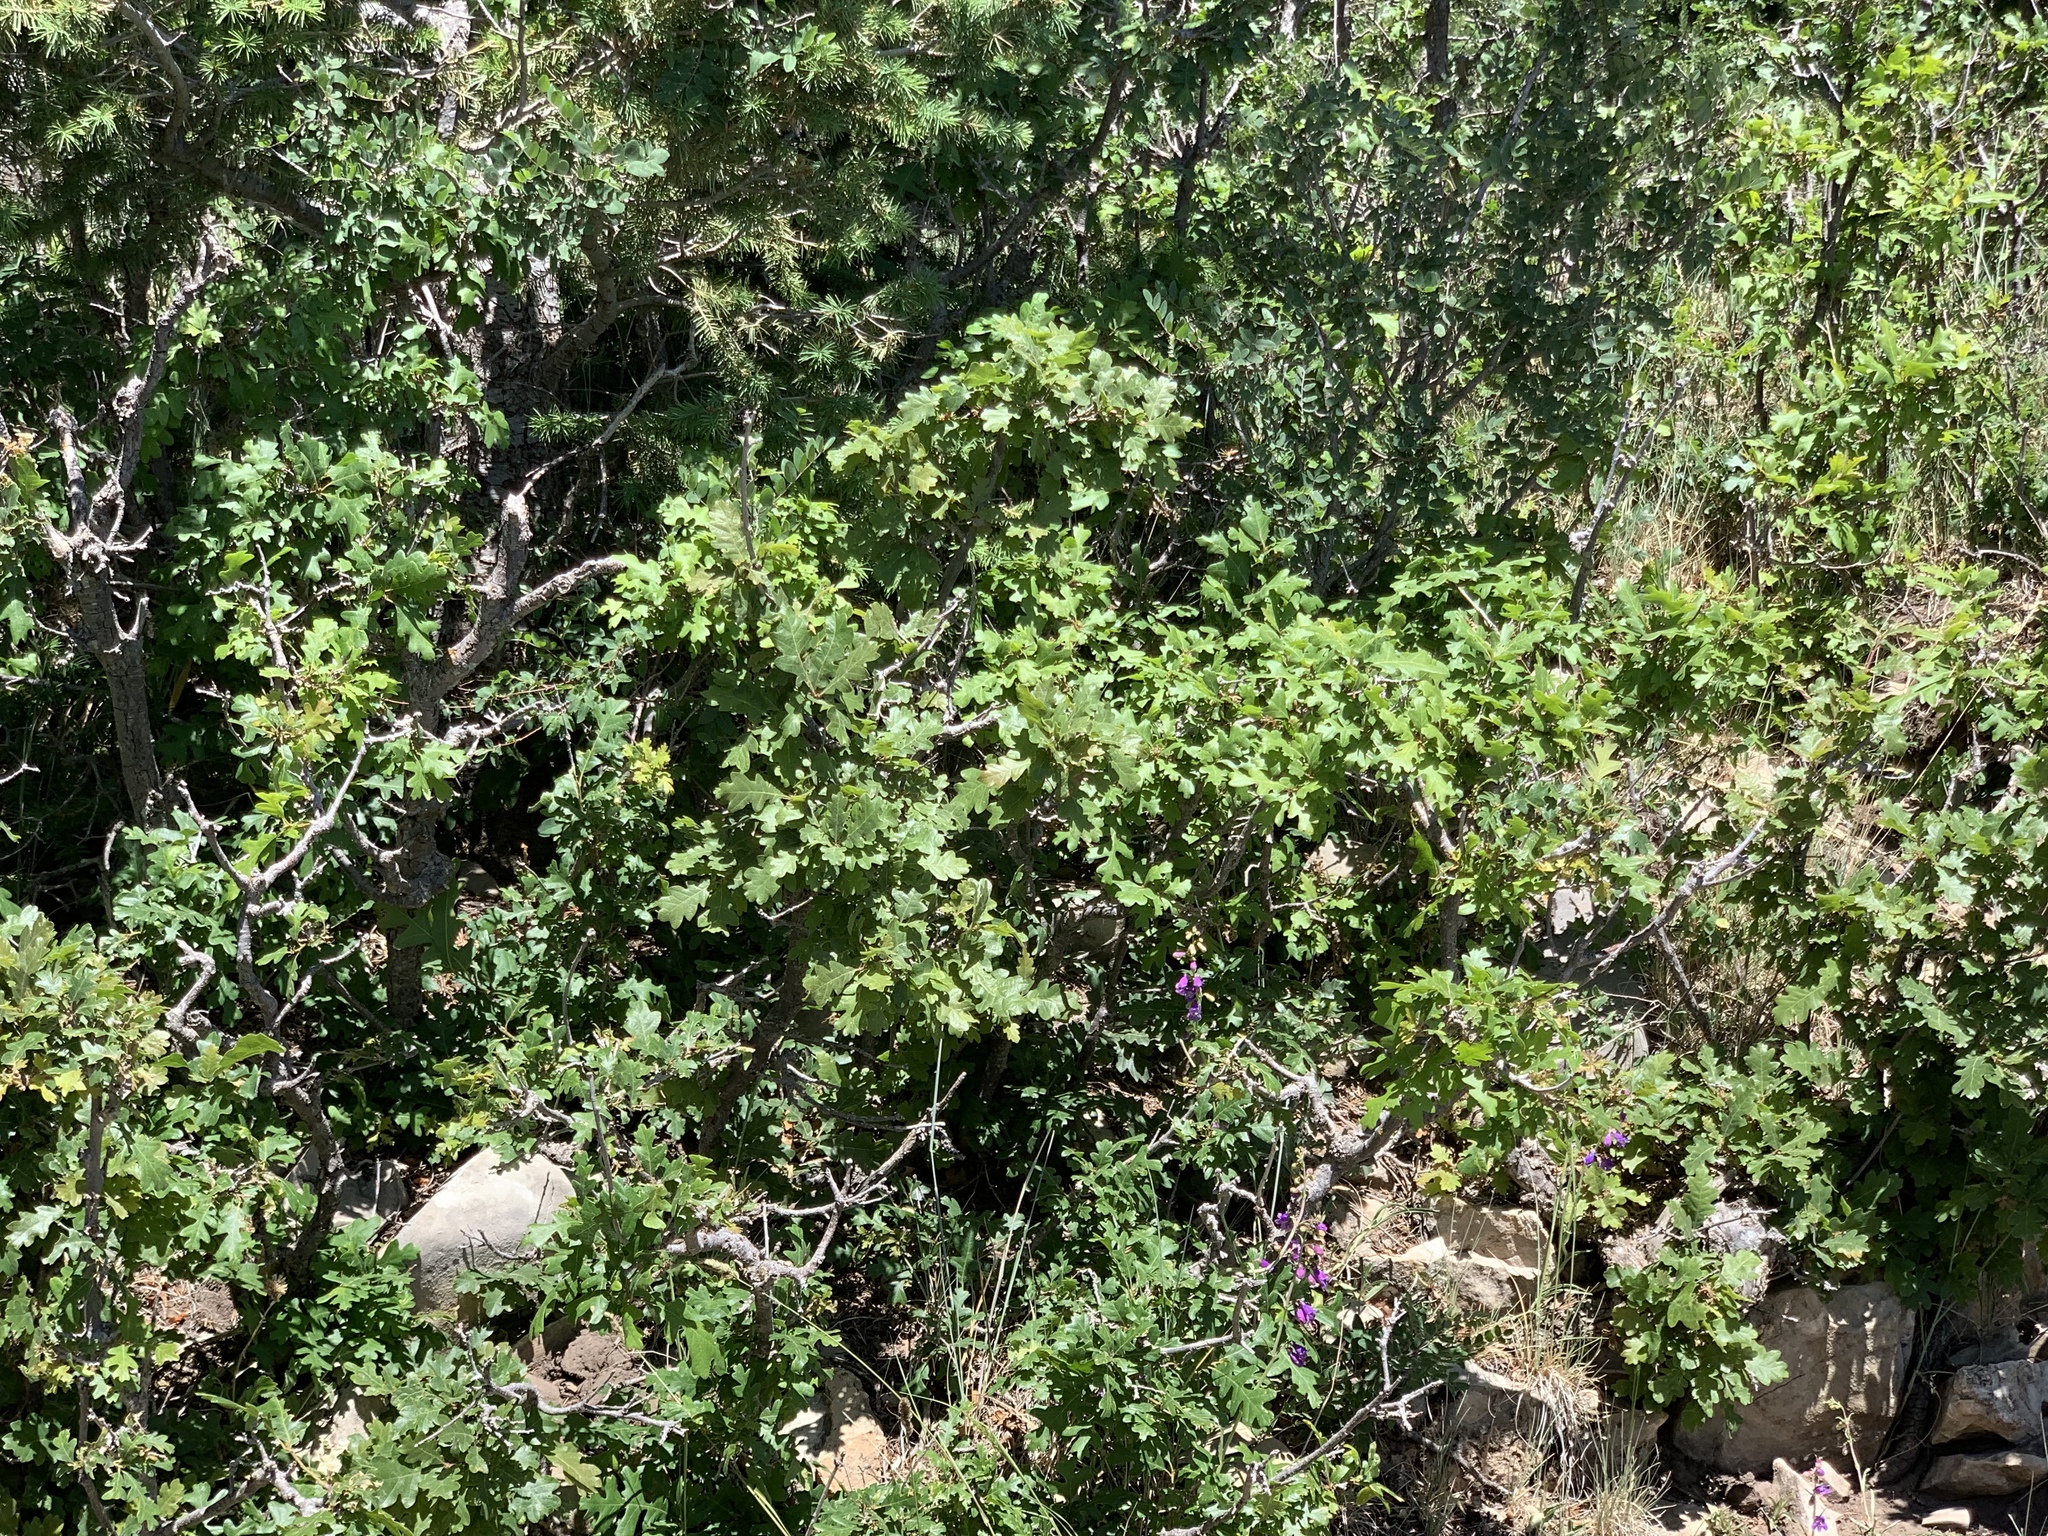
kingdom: Plantae
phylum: Tracheophyta
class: Magnoliopsida
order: Fagales
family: Fagaceae
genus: Quercus
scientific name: Quercus gambelii
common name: Gambel oak
